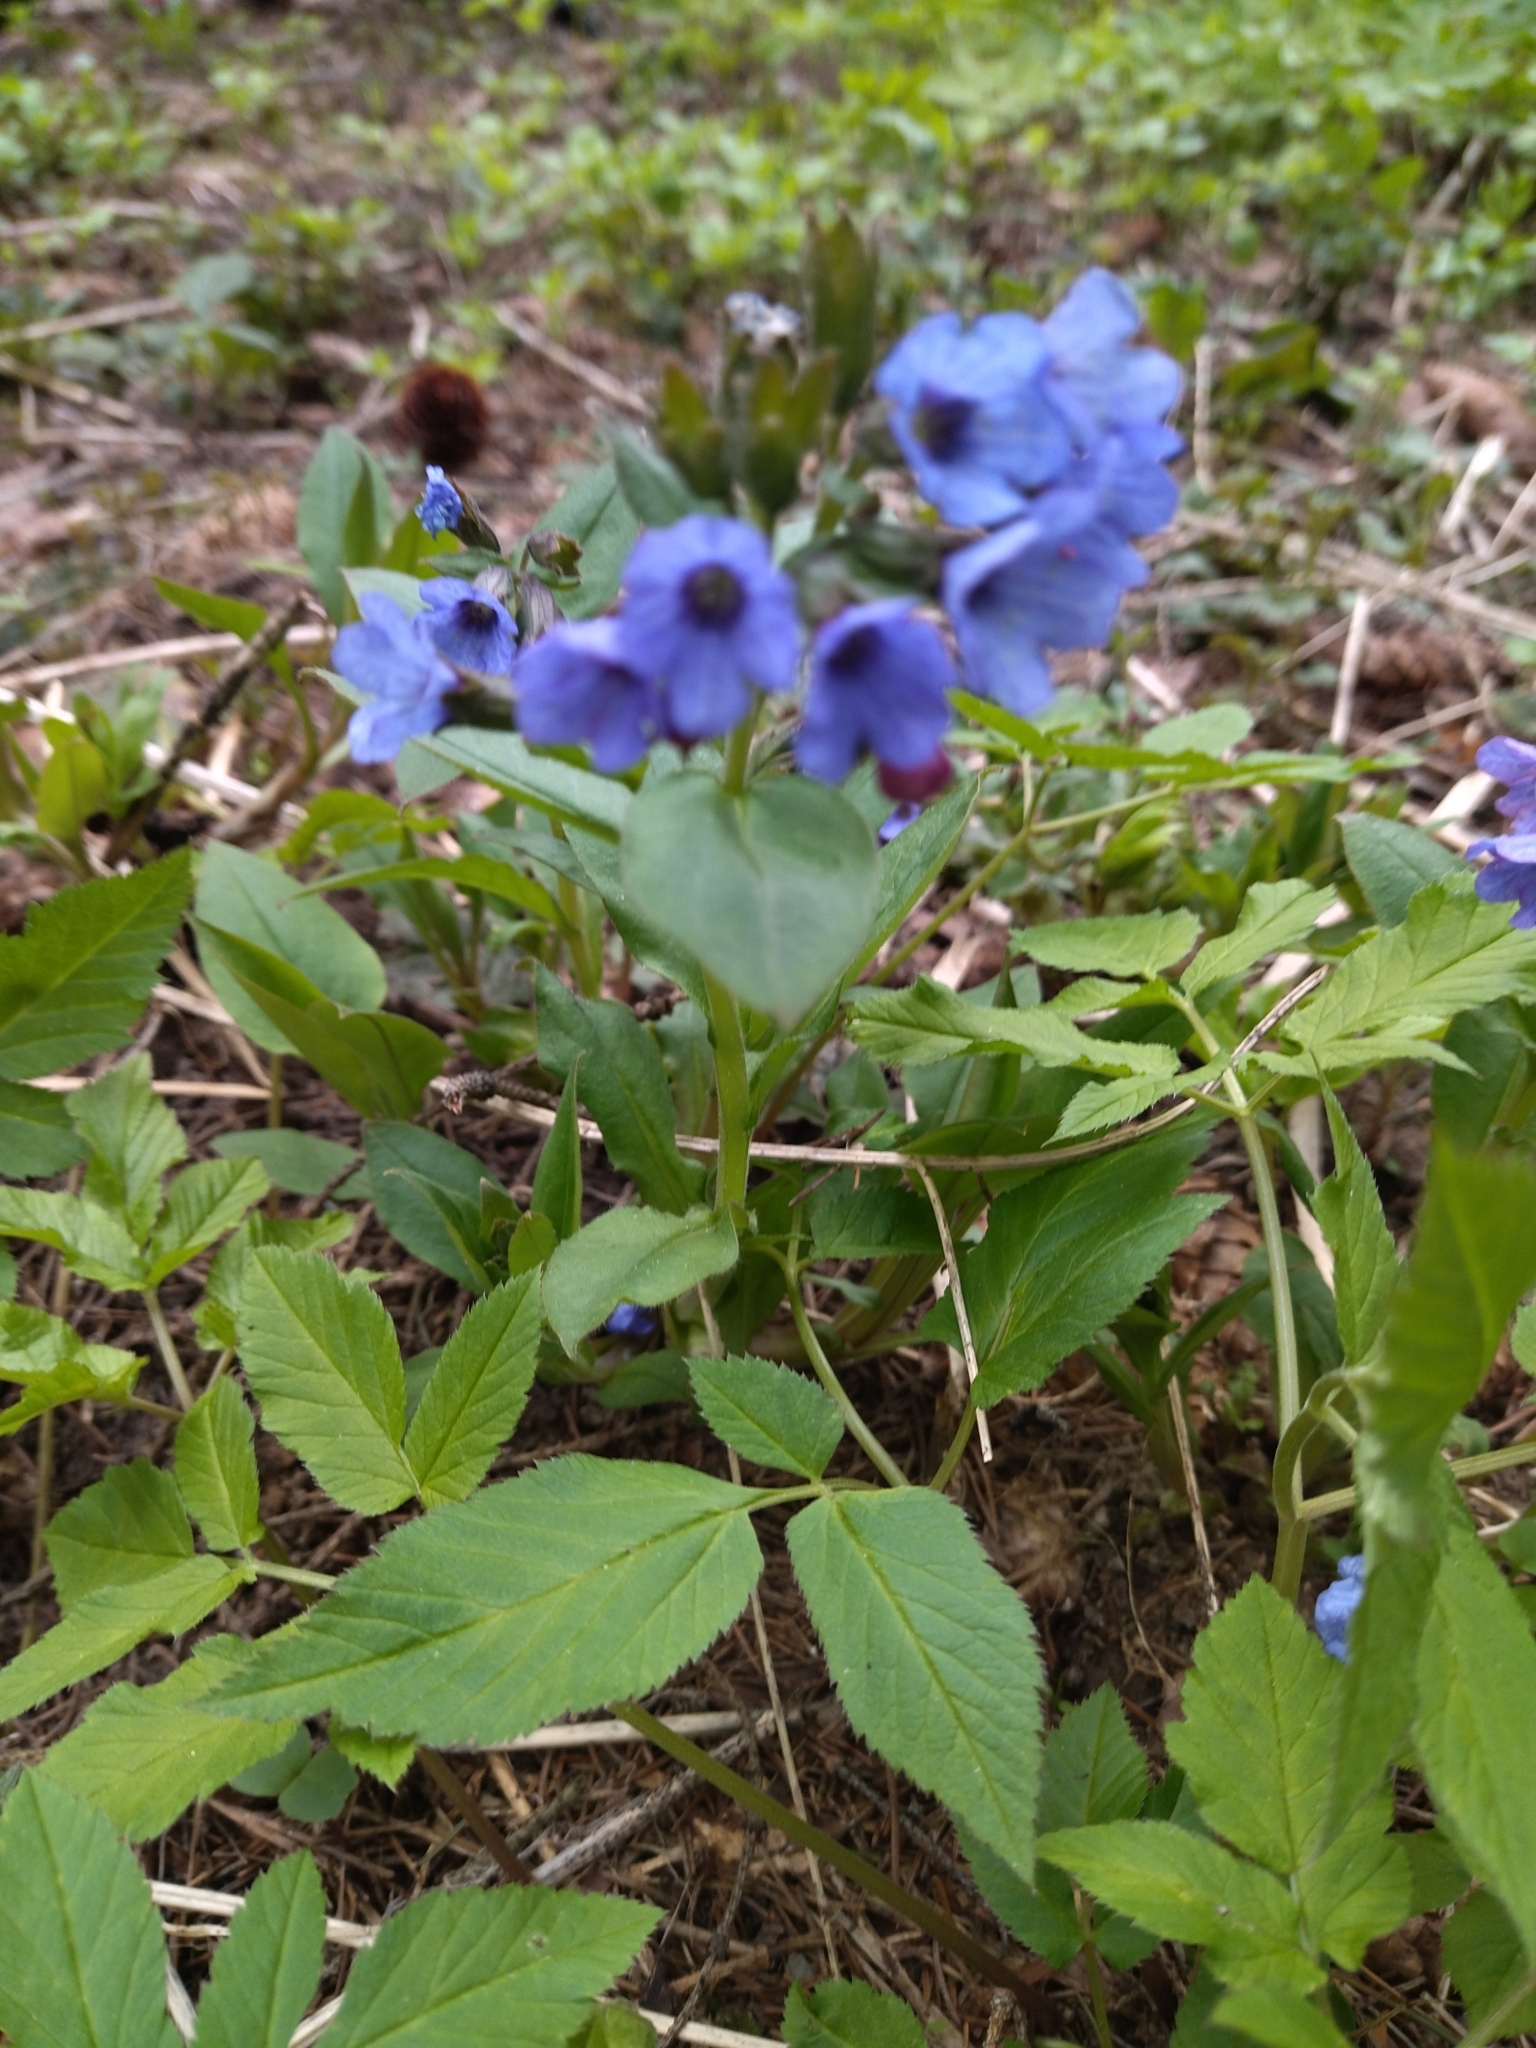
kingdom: Plantae
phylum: Tracheophyta
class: Magnoliopsida
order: Boraginales
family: Boraginaceae
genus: Pulmonaria
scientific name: Pulmonaria obscura
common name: Suffolk lungwort
